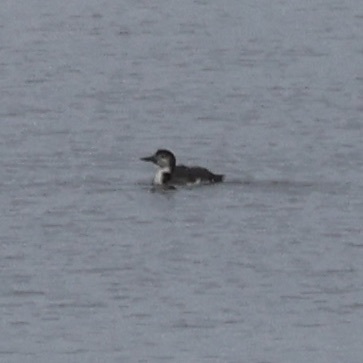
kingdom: Animalia
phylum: Chordata
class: Aves
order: Gaviiformes
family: Gaviidae
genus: Gavia
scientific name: Gavia immer
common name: Common loon
